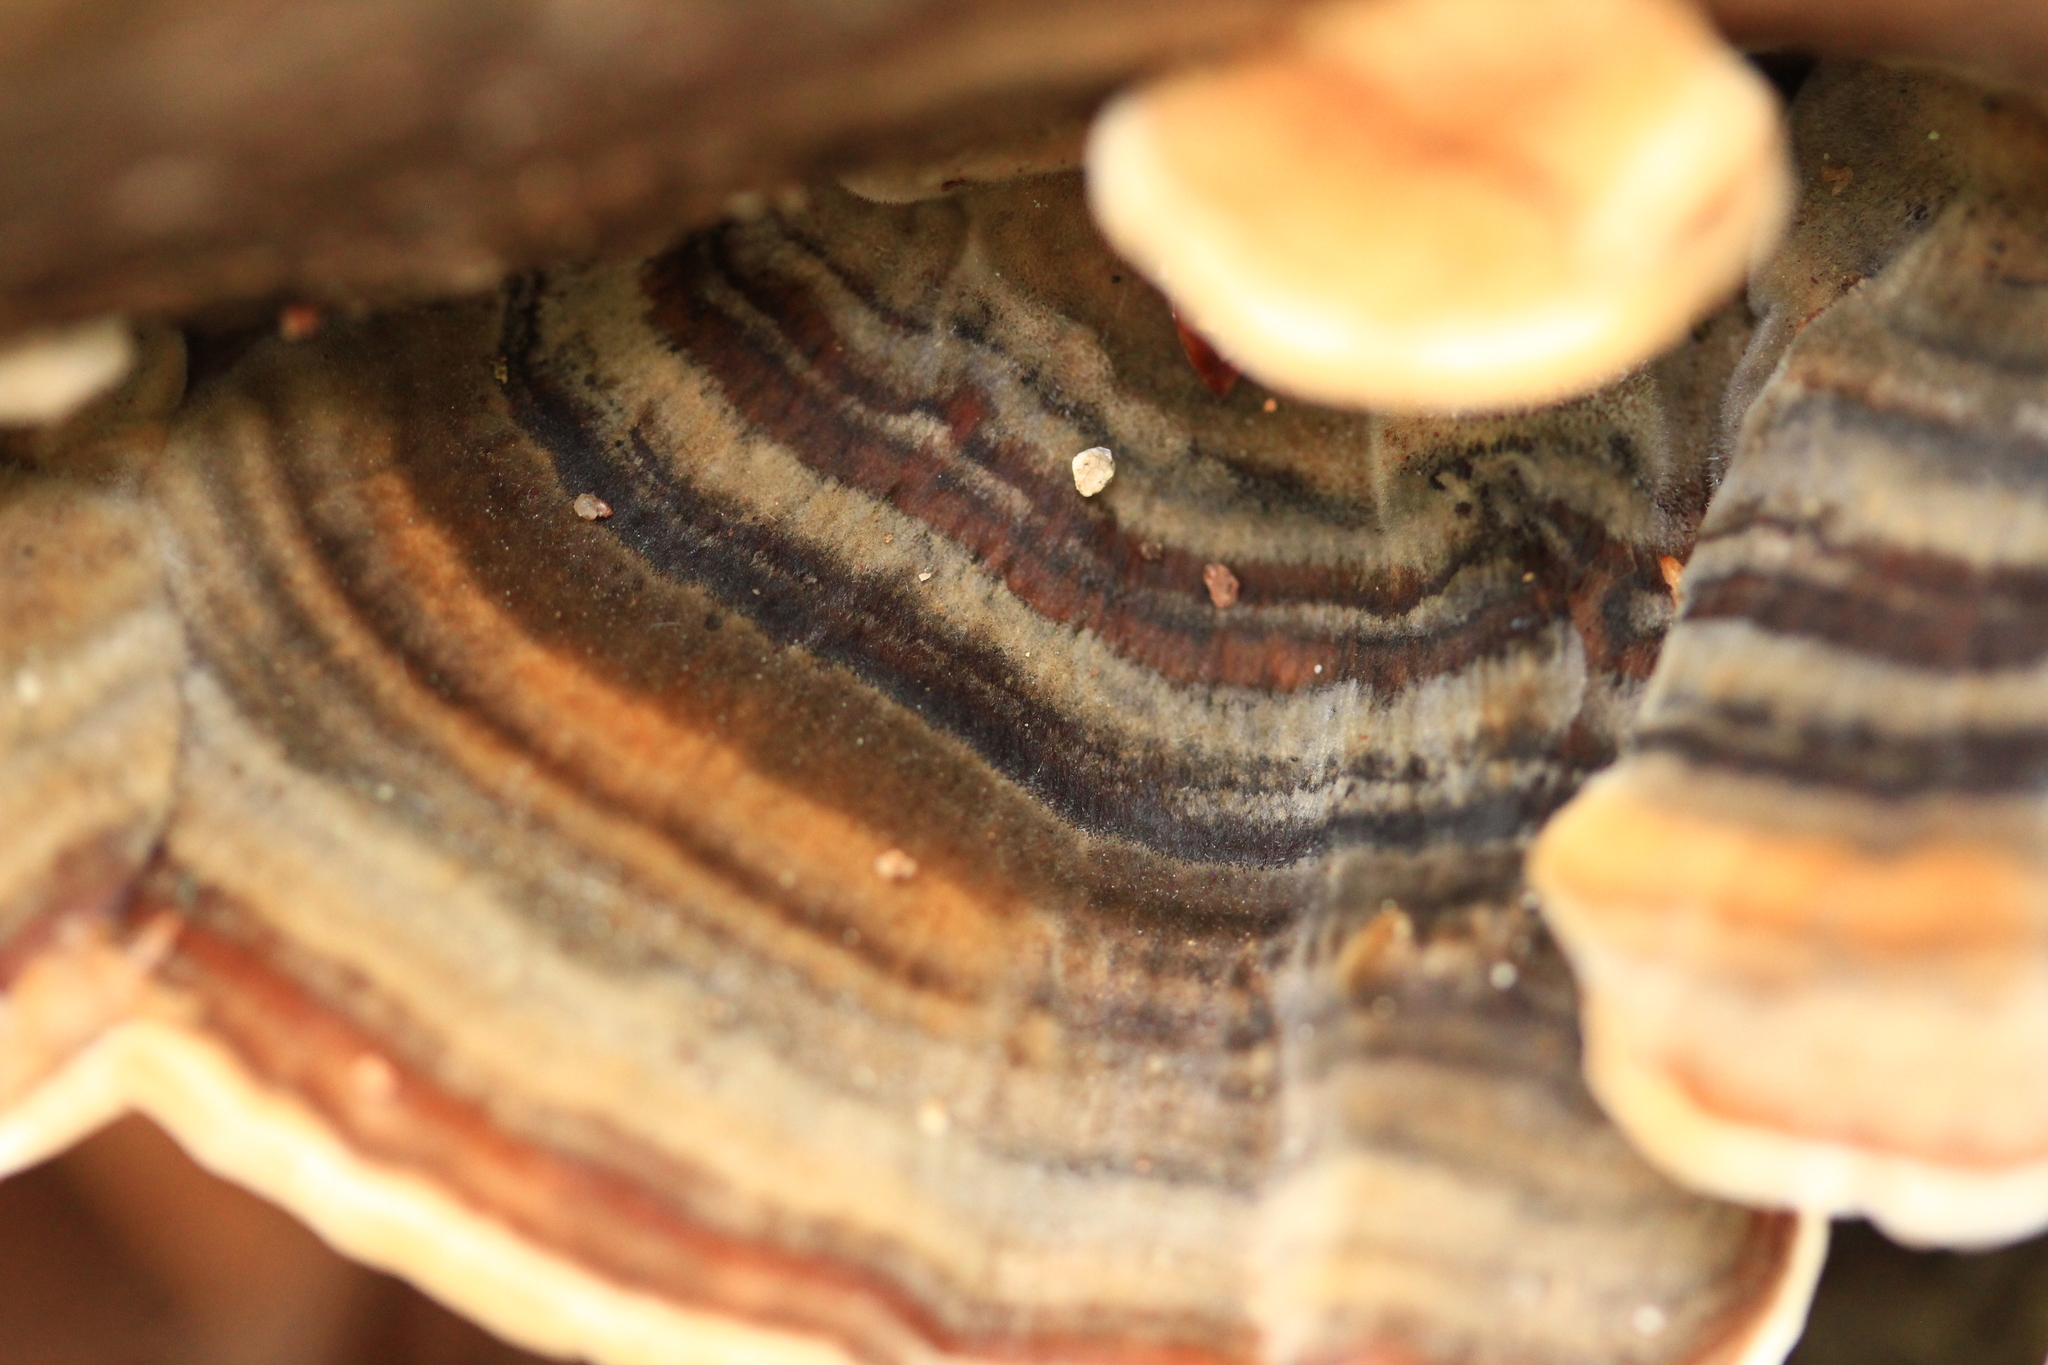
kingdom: Fungi
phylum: Basidiomycota
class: Agaricomycetes
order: Polyporales
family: Polyporaceae
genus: Trametes
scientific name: Trametes versicolor
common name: Turkeytail
